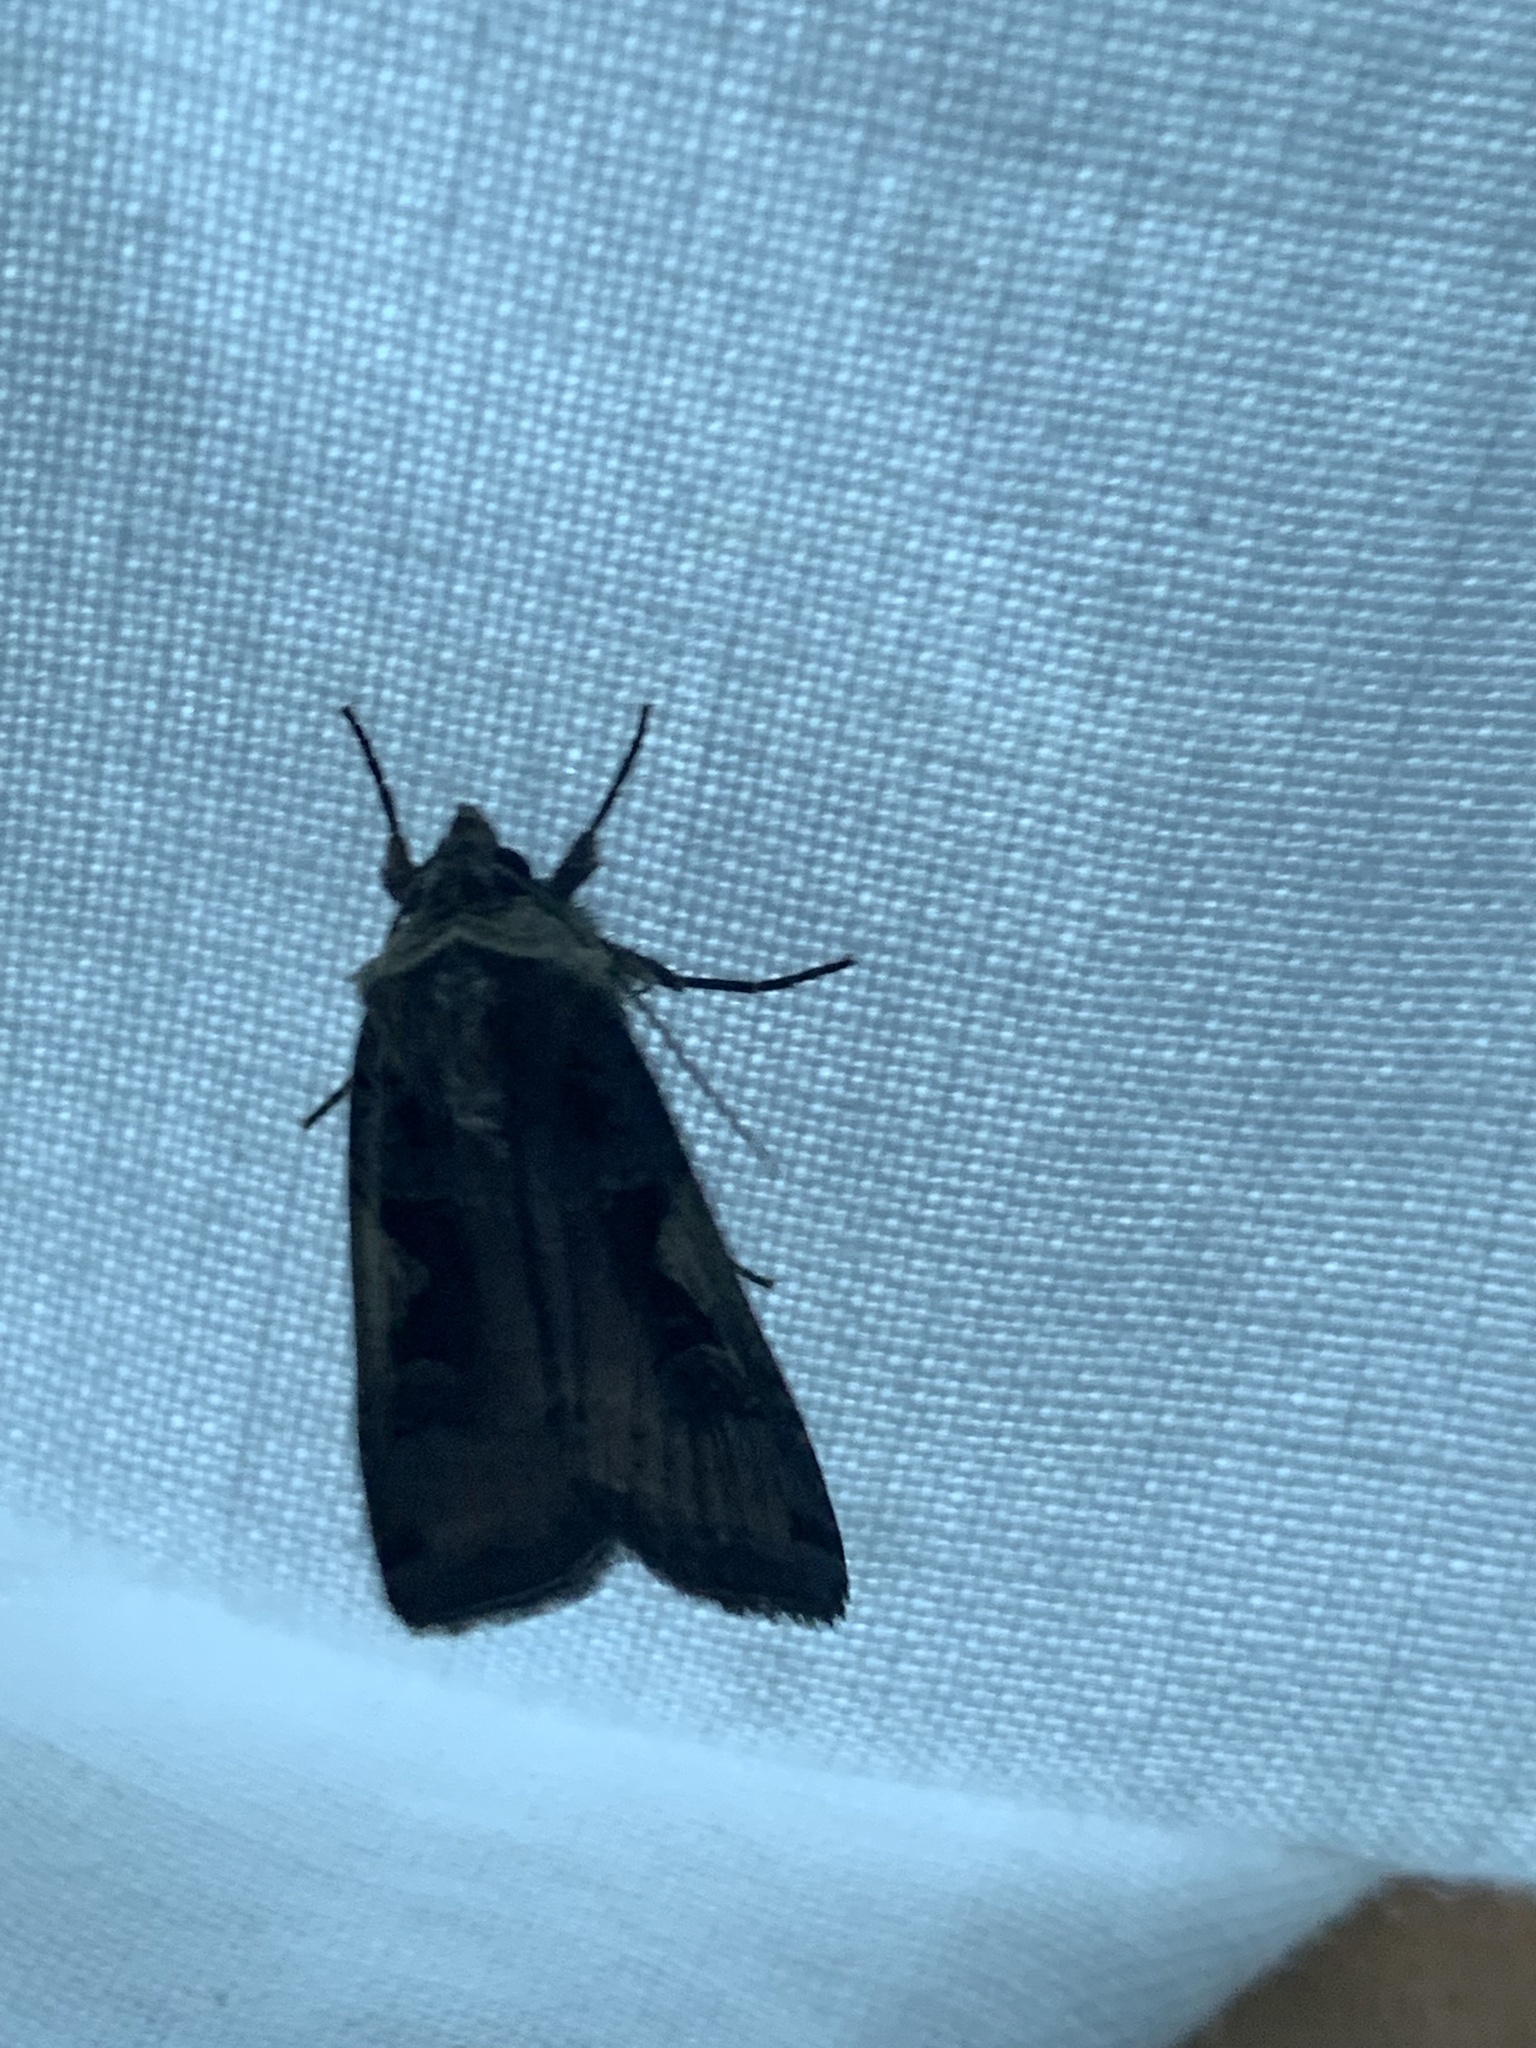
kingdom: Animalia
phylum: Arthropoda
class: Insecta
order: Lepidoptera
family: Noctuidae
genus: Xestia
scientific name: Xestia c-nigrum
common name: Setaceous hebrew character
